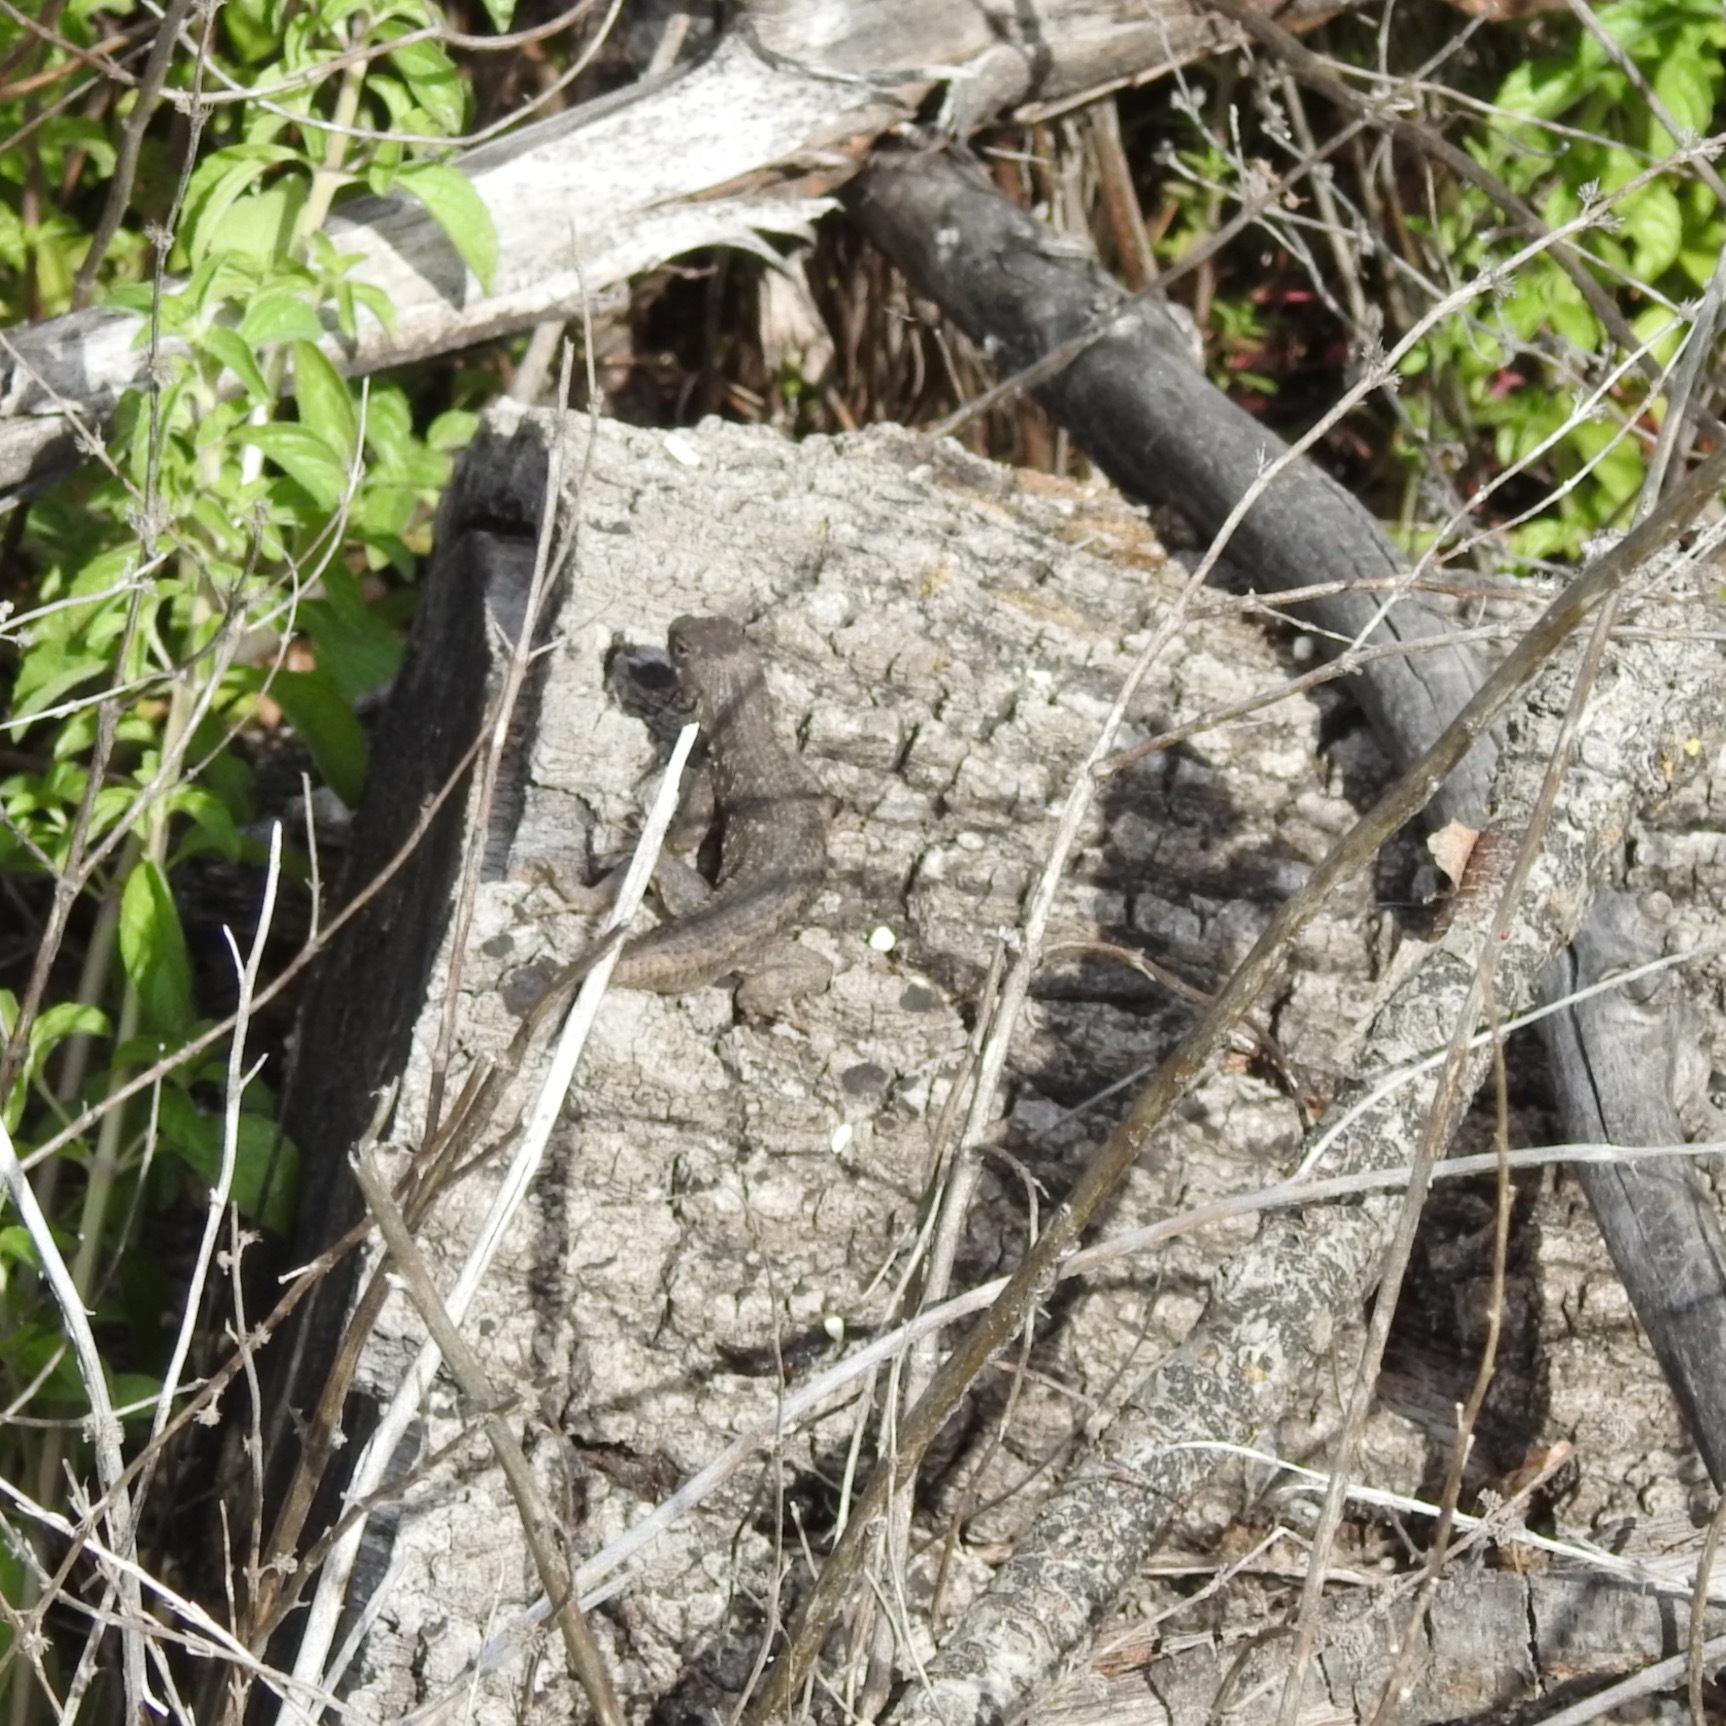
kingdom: Animalia
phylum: Chordata
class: Squamata
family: Phrynosomatidae
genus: Sceloporus
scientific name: Sceloporus occidentalis
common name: Western fence lizard
